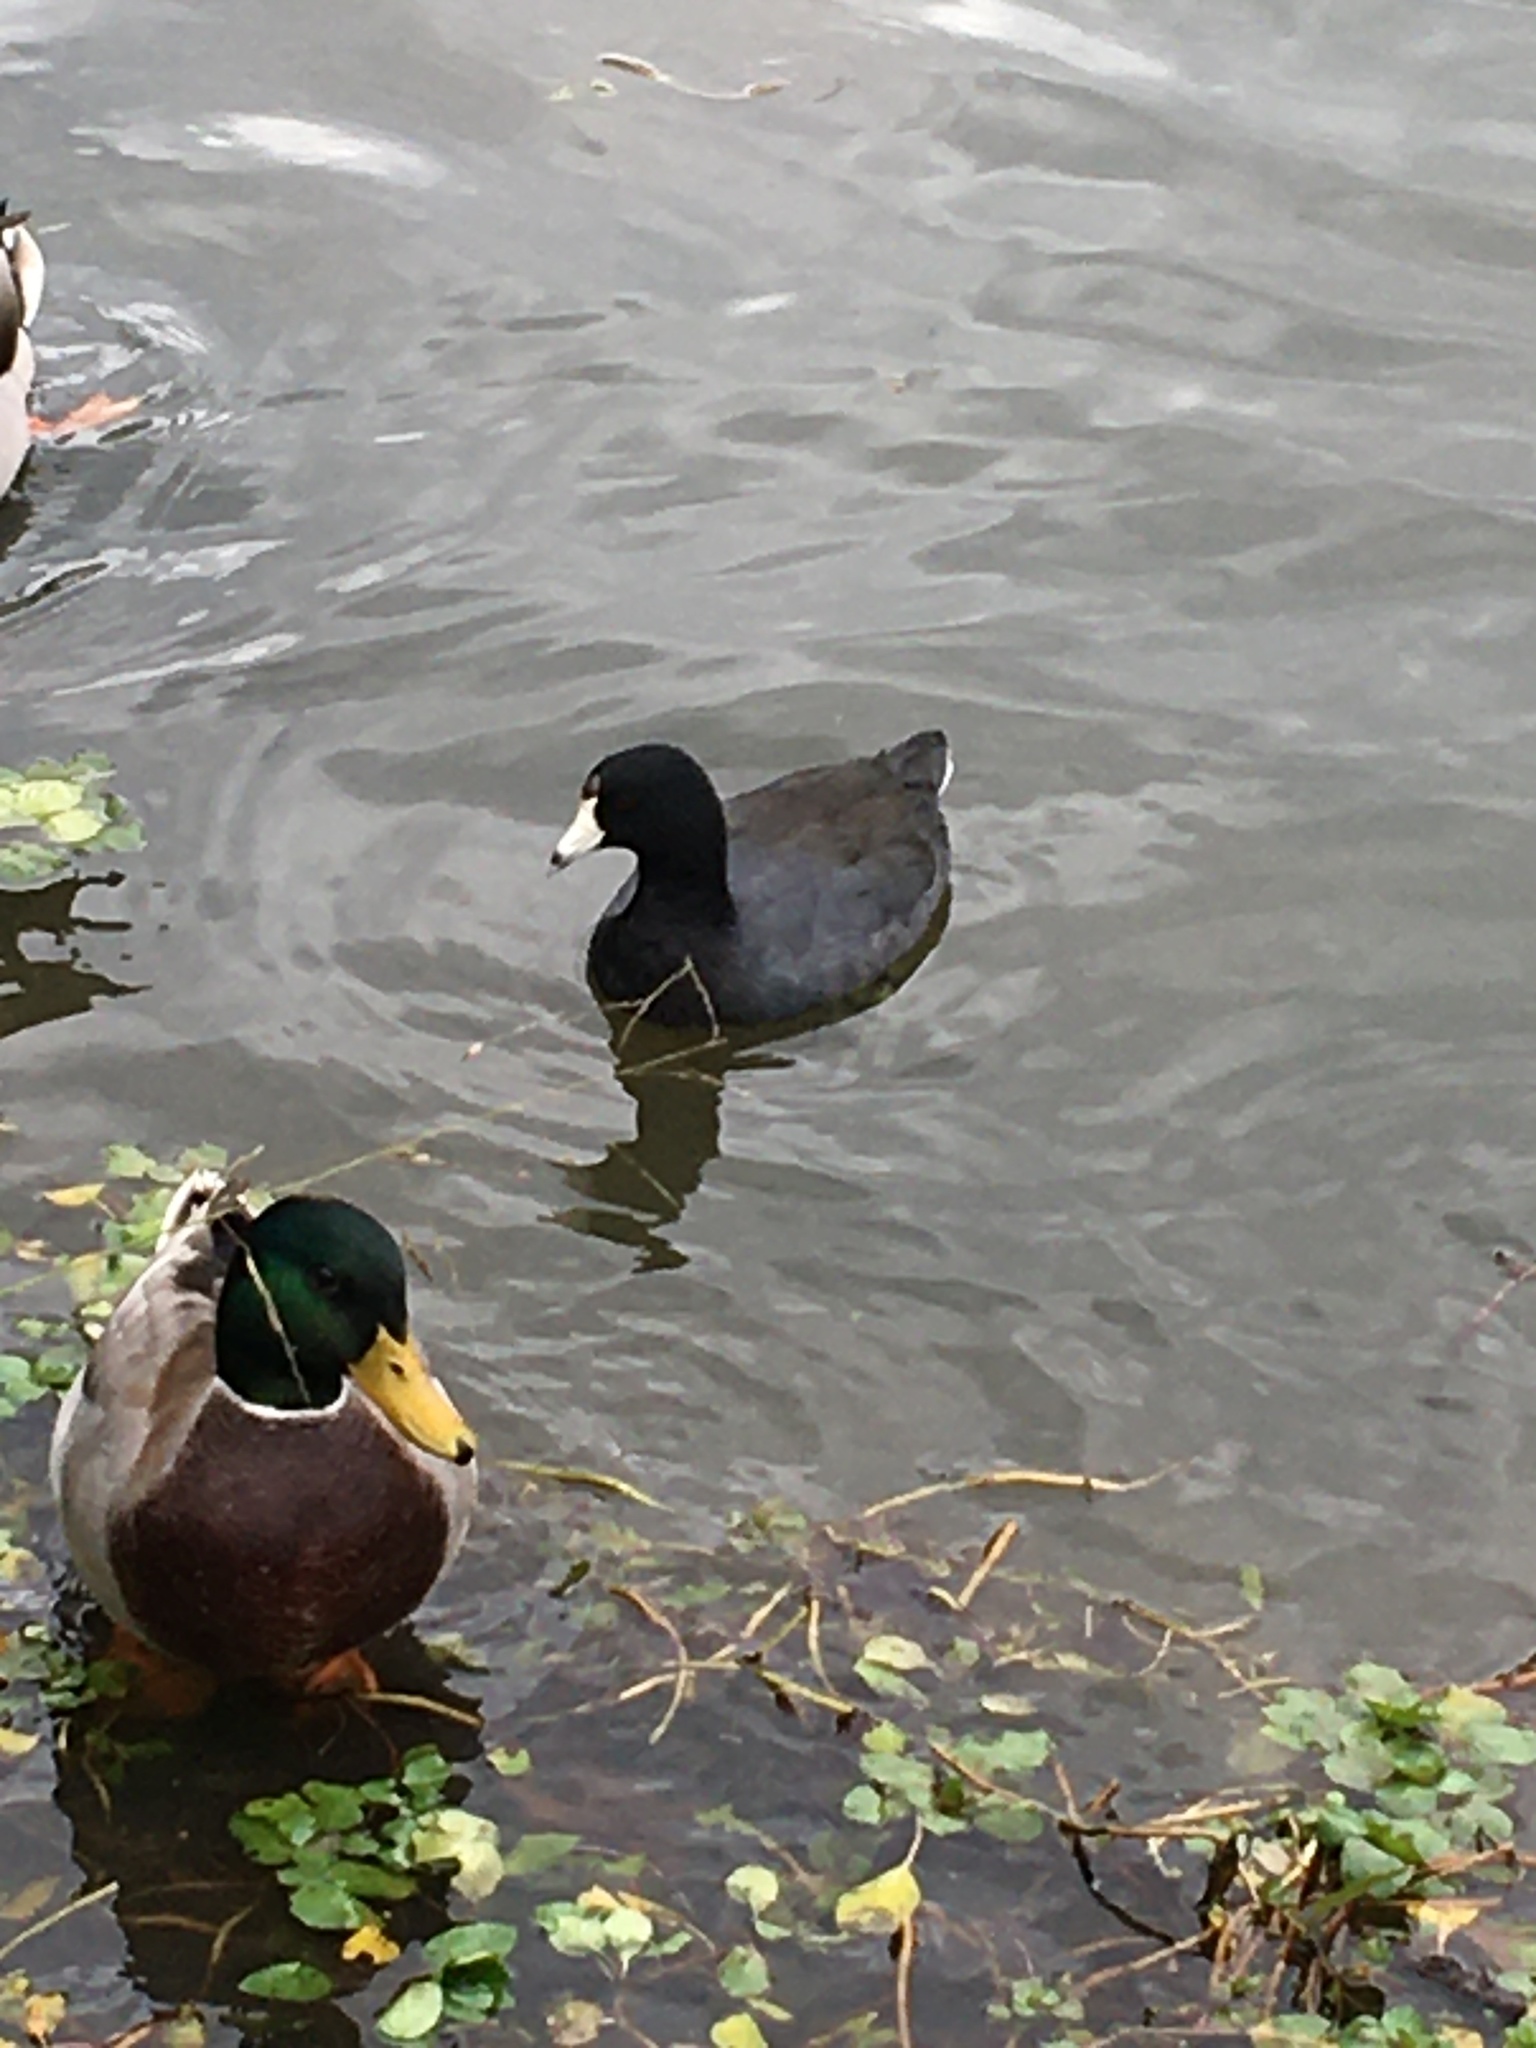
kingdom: Animalia
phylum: Chordata
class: Aves
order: Gruiformes
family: Rallidae
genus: Fulica
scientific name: Fulica americana
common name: American coot
